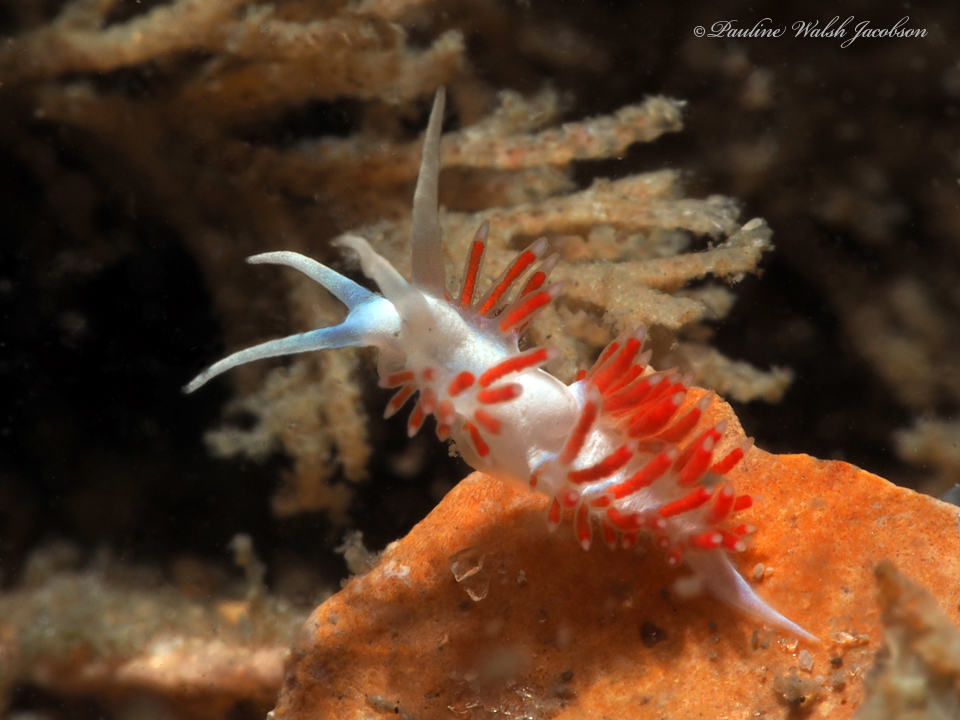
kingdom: Animalia
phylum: Mollusca
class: Gastropoda
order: Nudibranchia
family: Flabellinidae
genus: Flabellina
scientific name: Flabellina dushia
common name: Dushia flabellina
